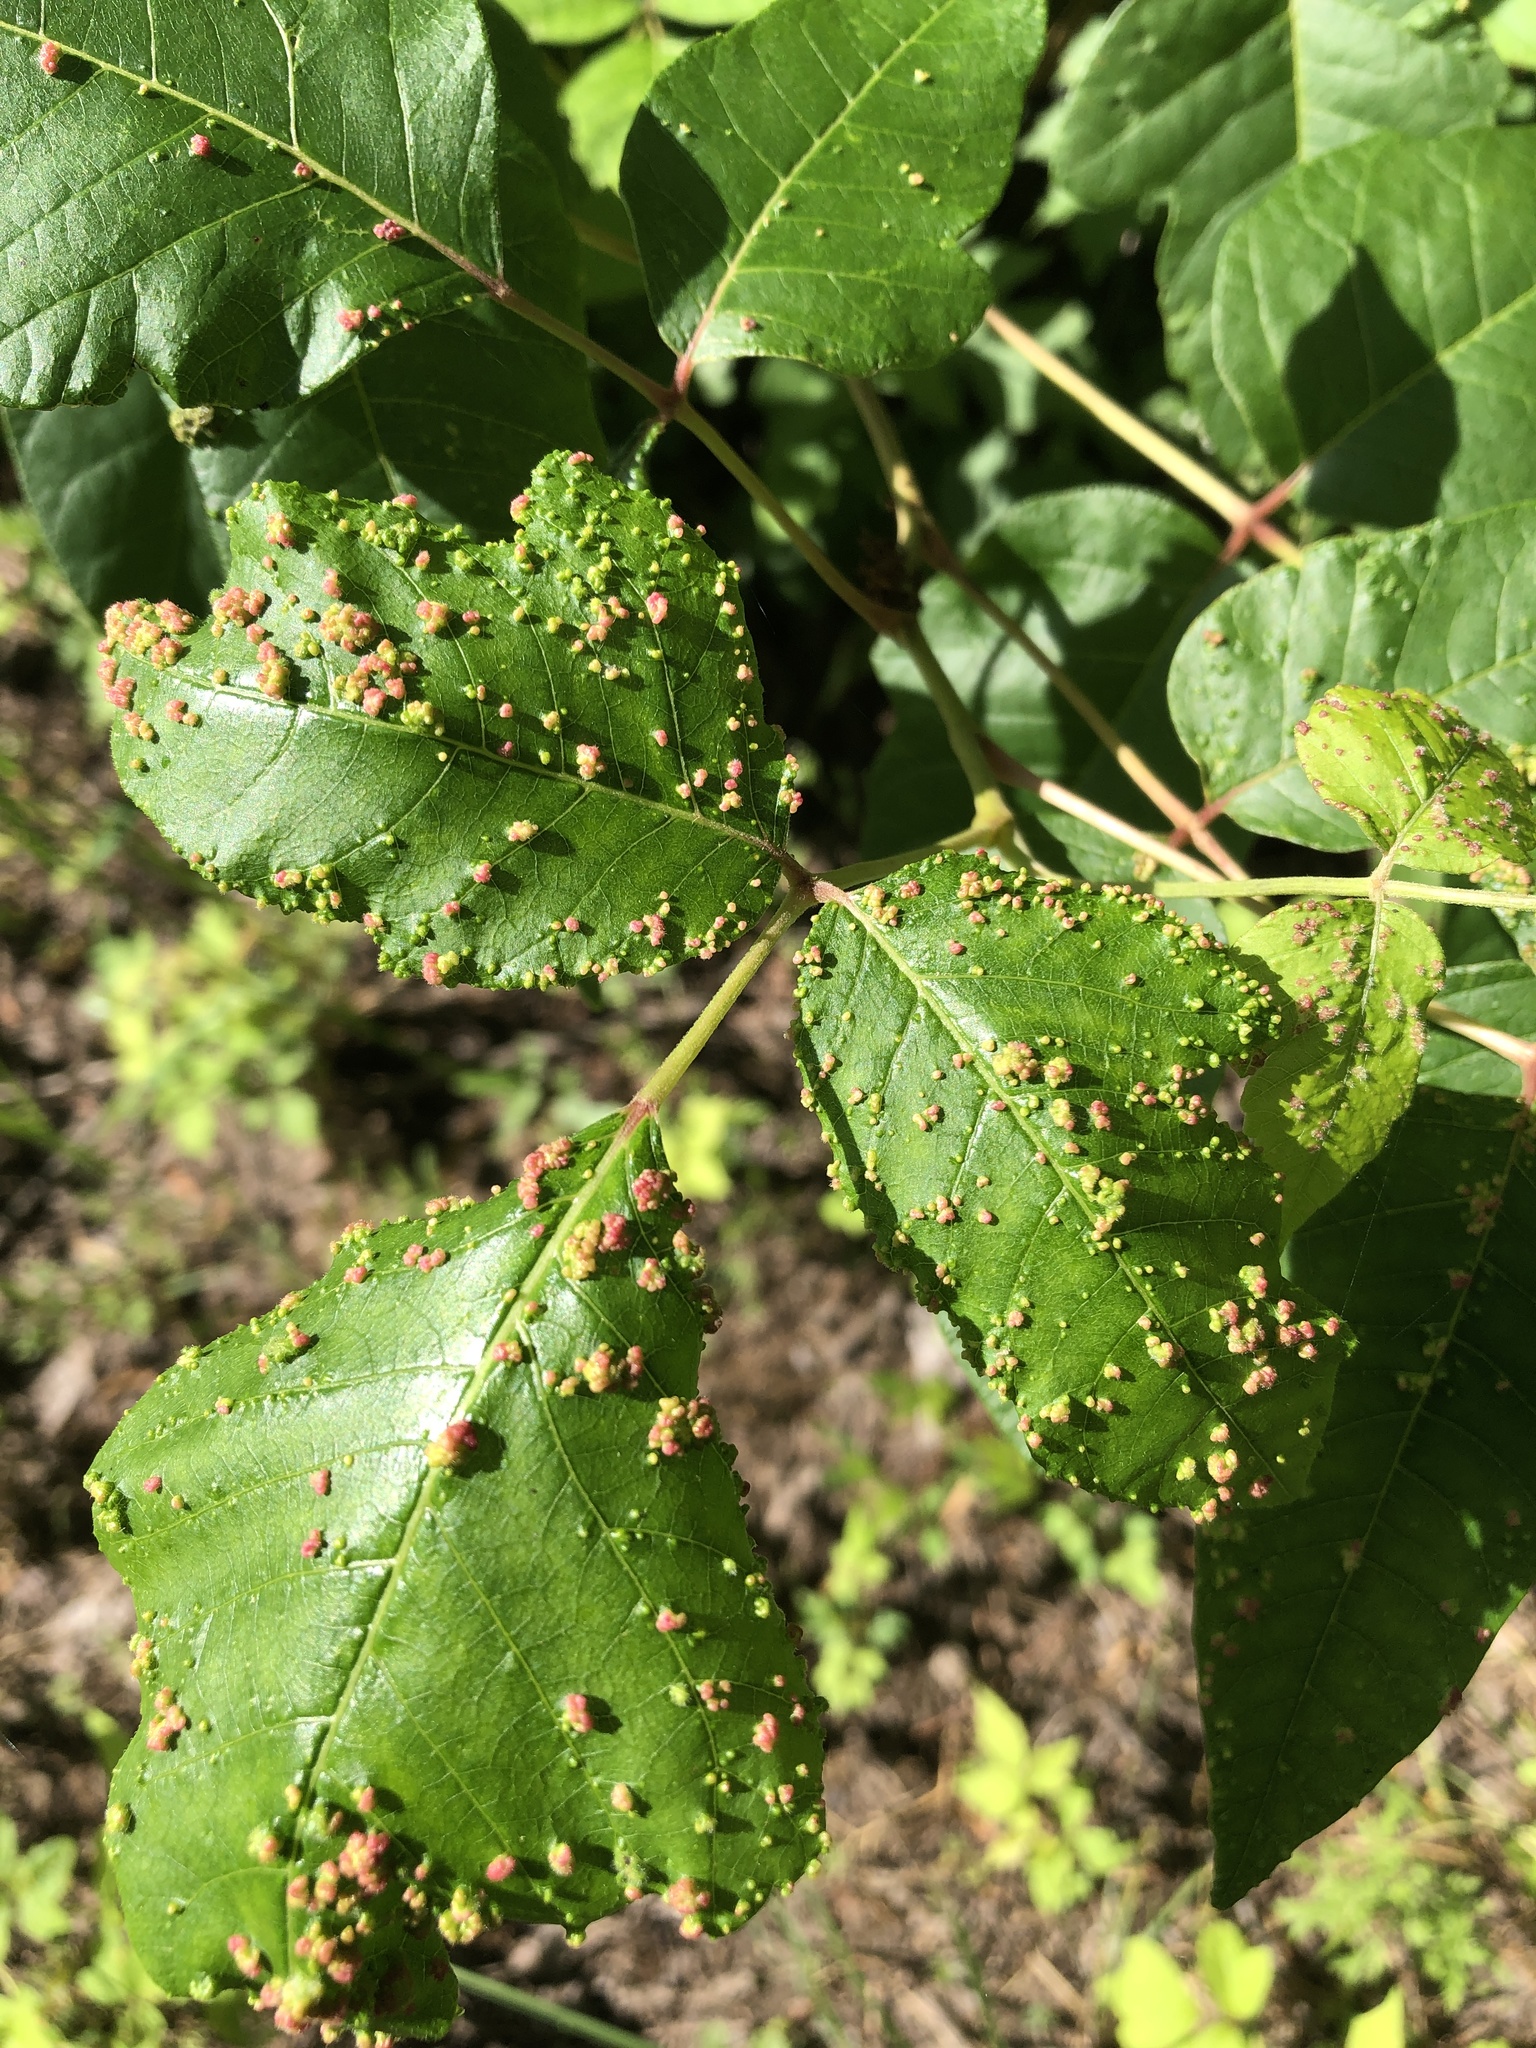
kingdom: Animalia
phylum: Arthropoda
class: Arachnida
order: Trombidiformes
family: Eriophyidae
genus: Aculops
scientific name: Aculops
